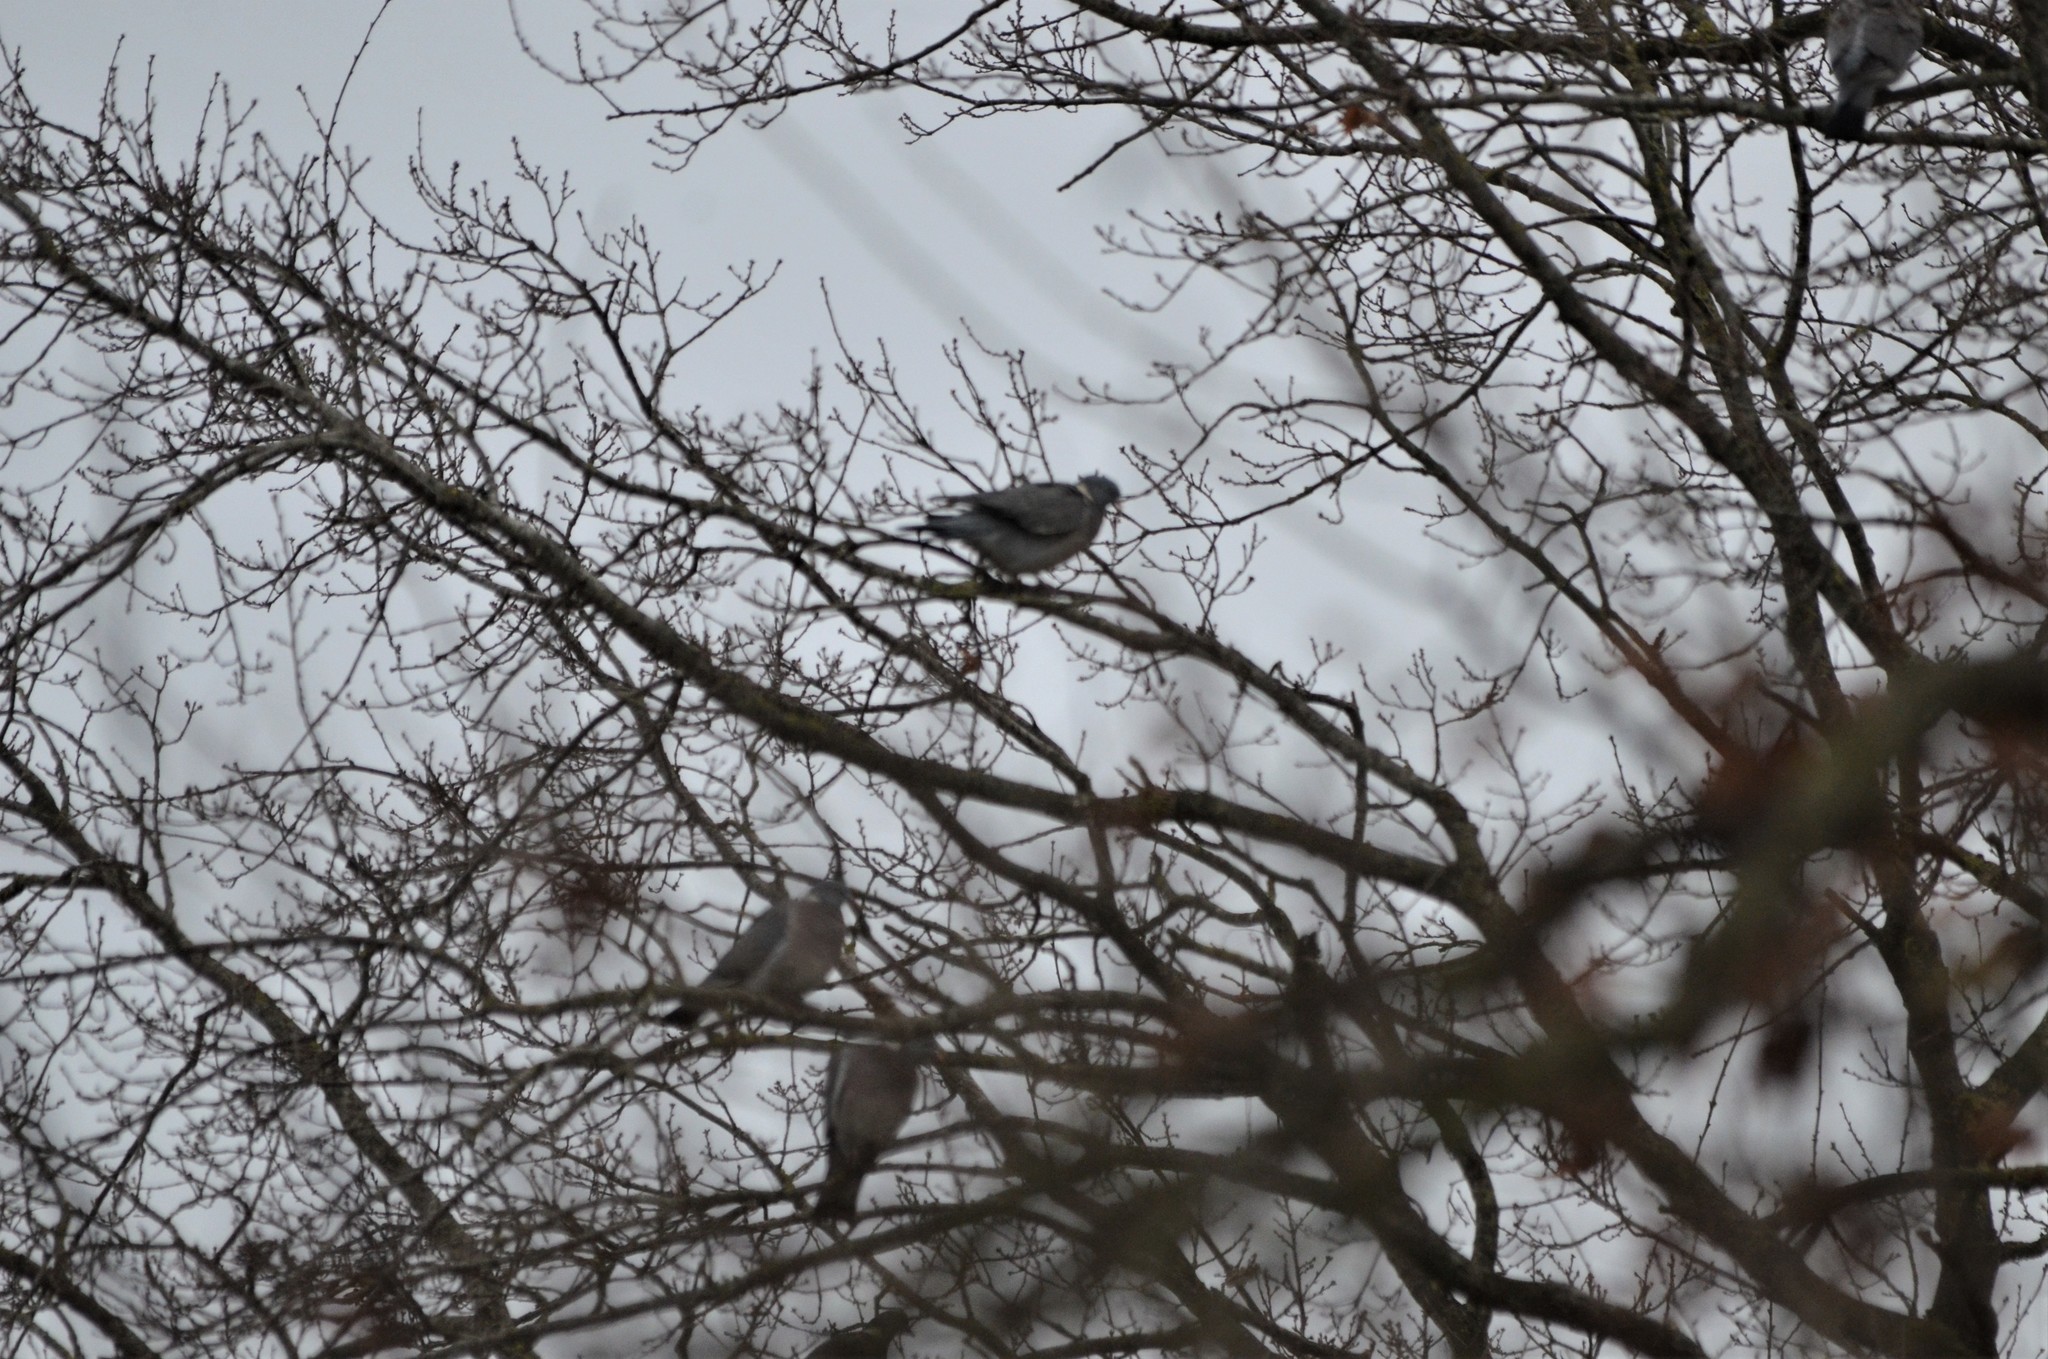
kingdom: Animalia
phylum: Chordata
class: Aves
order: Columbiformes
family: Columbidae
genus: Columba
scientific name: Columba palumbus
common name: Common wood pigeon
